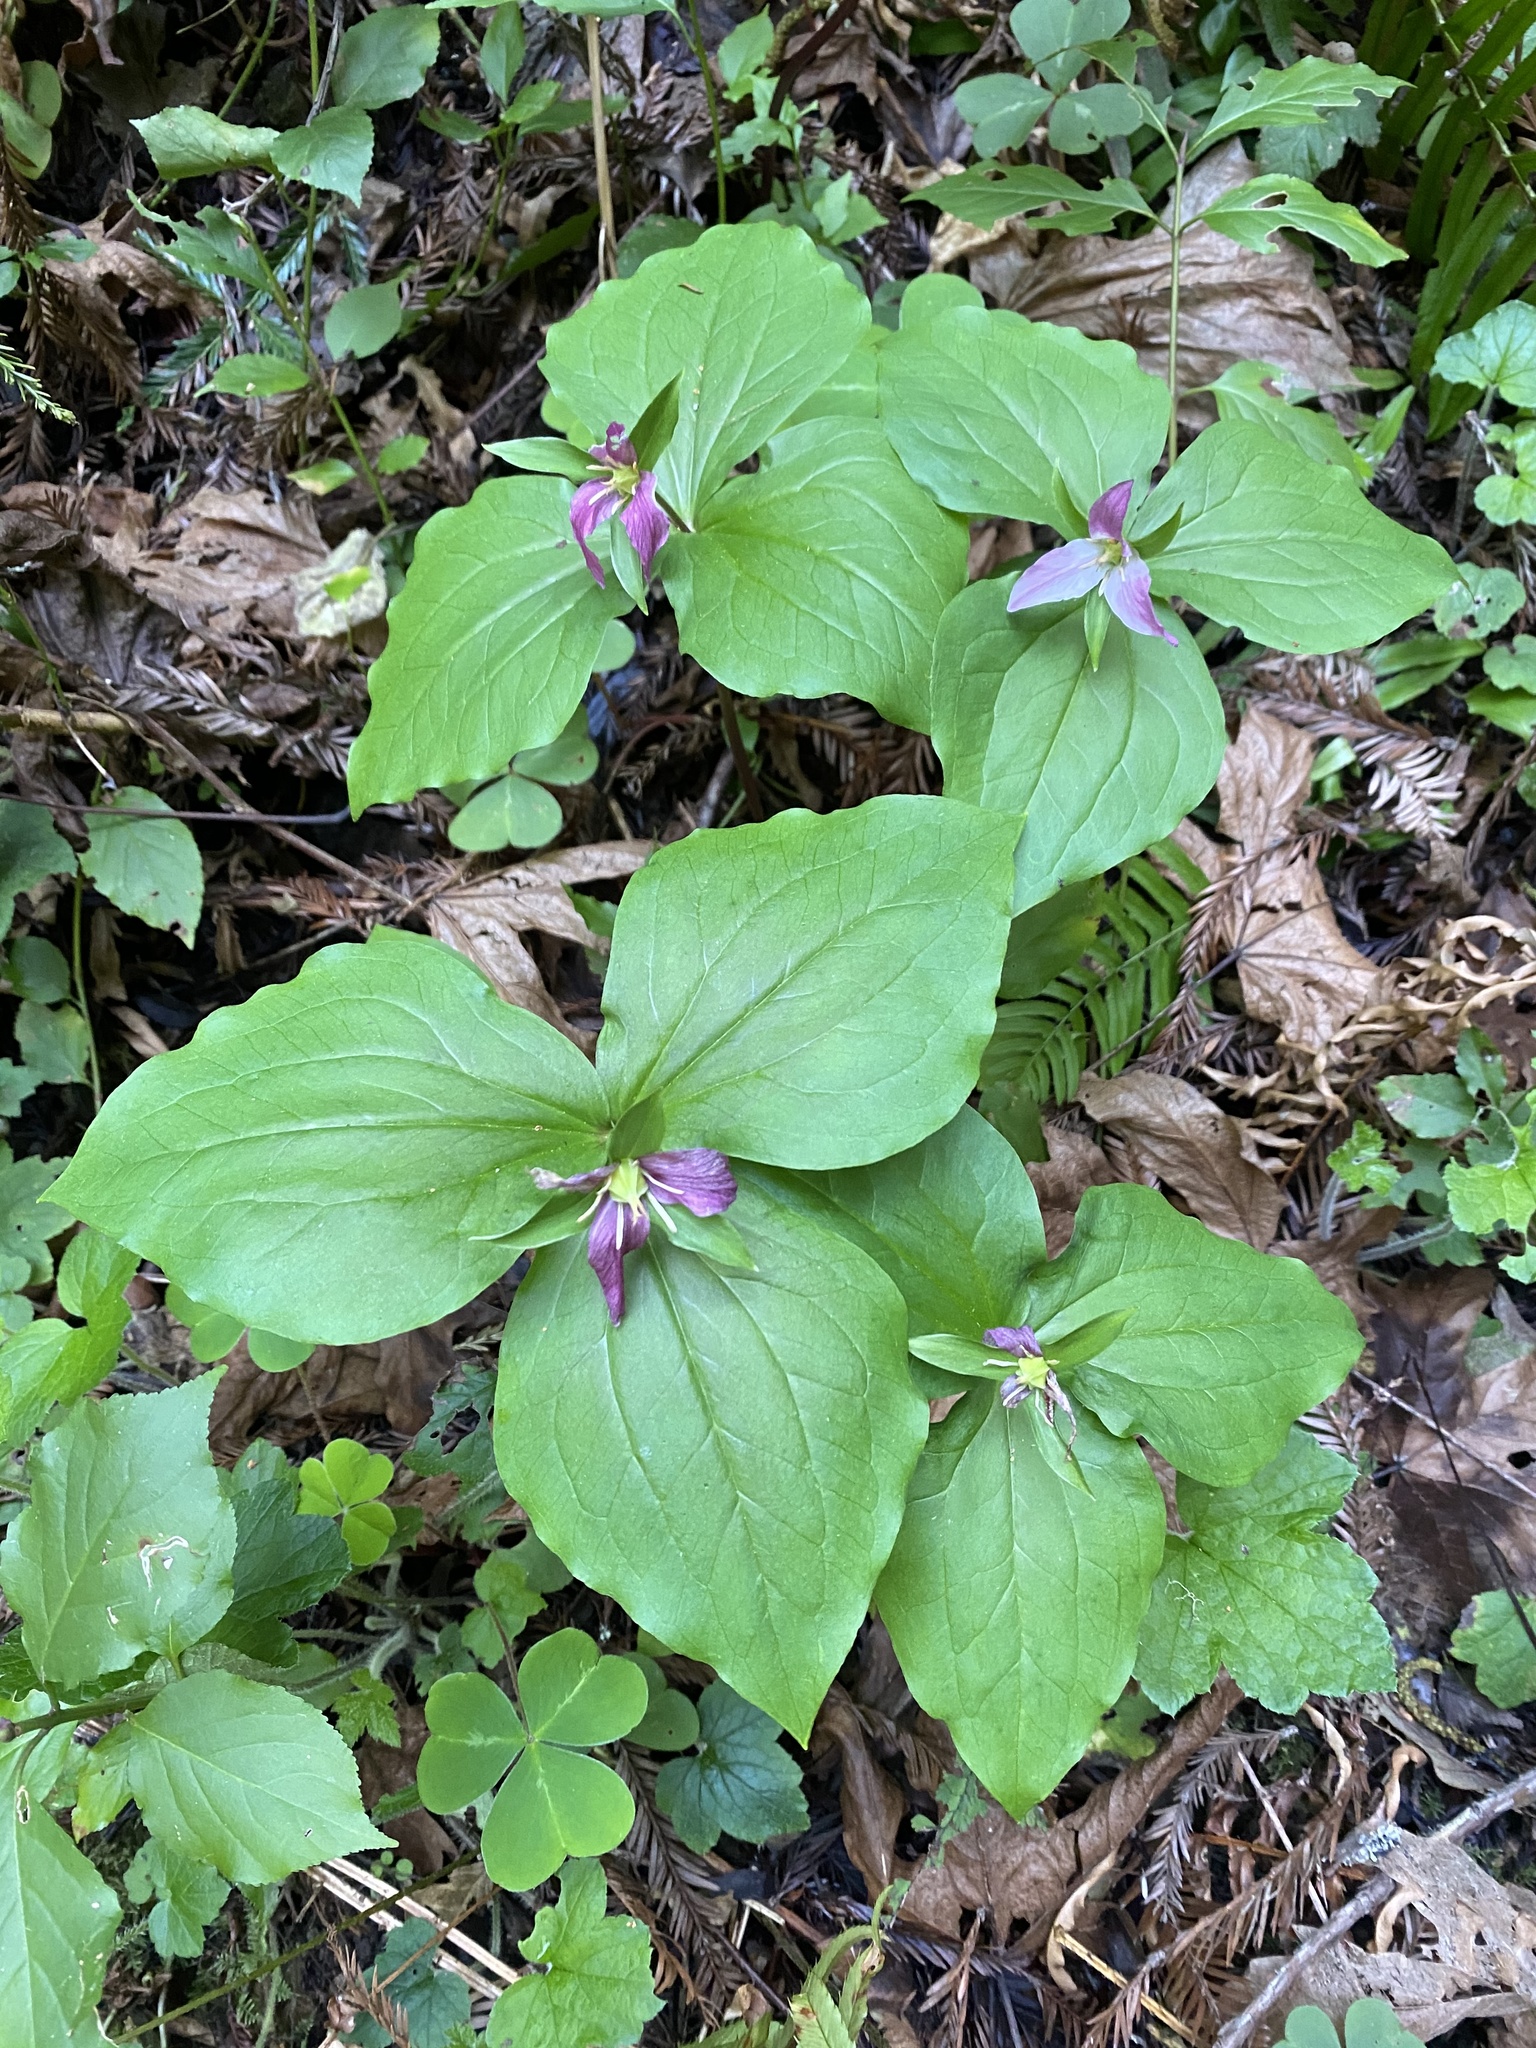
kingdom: Plantae
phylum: Tracheophyta
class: Liliopsida
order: Liliales
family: Melanthiaceae
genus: Trillium
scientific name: Trillium ovatum
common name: Pacific trillium
